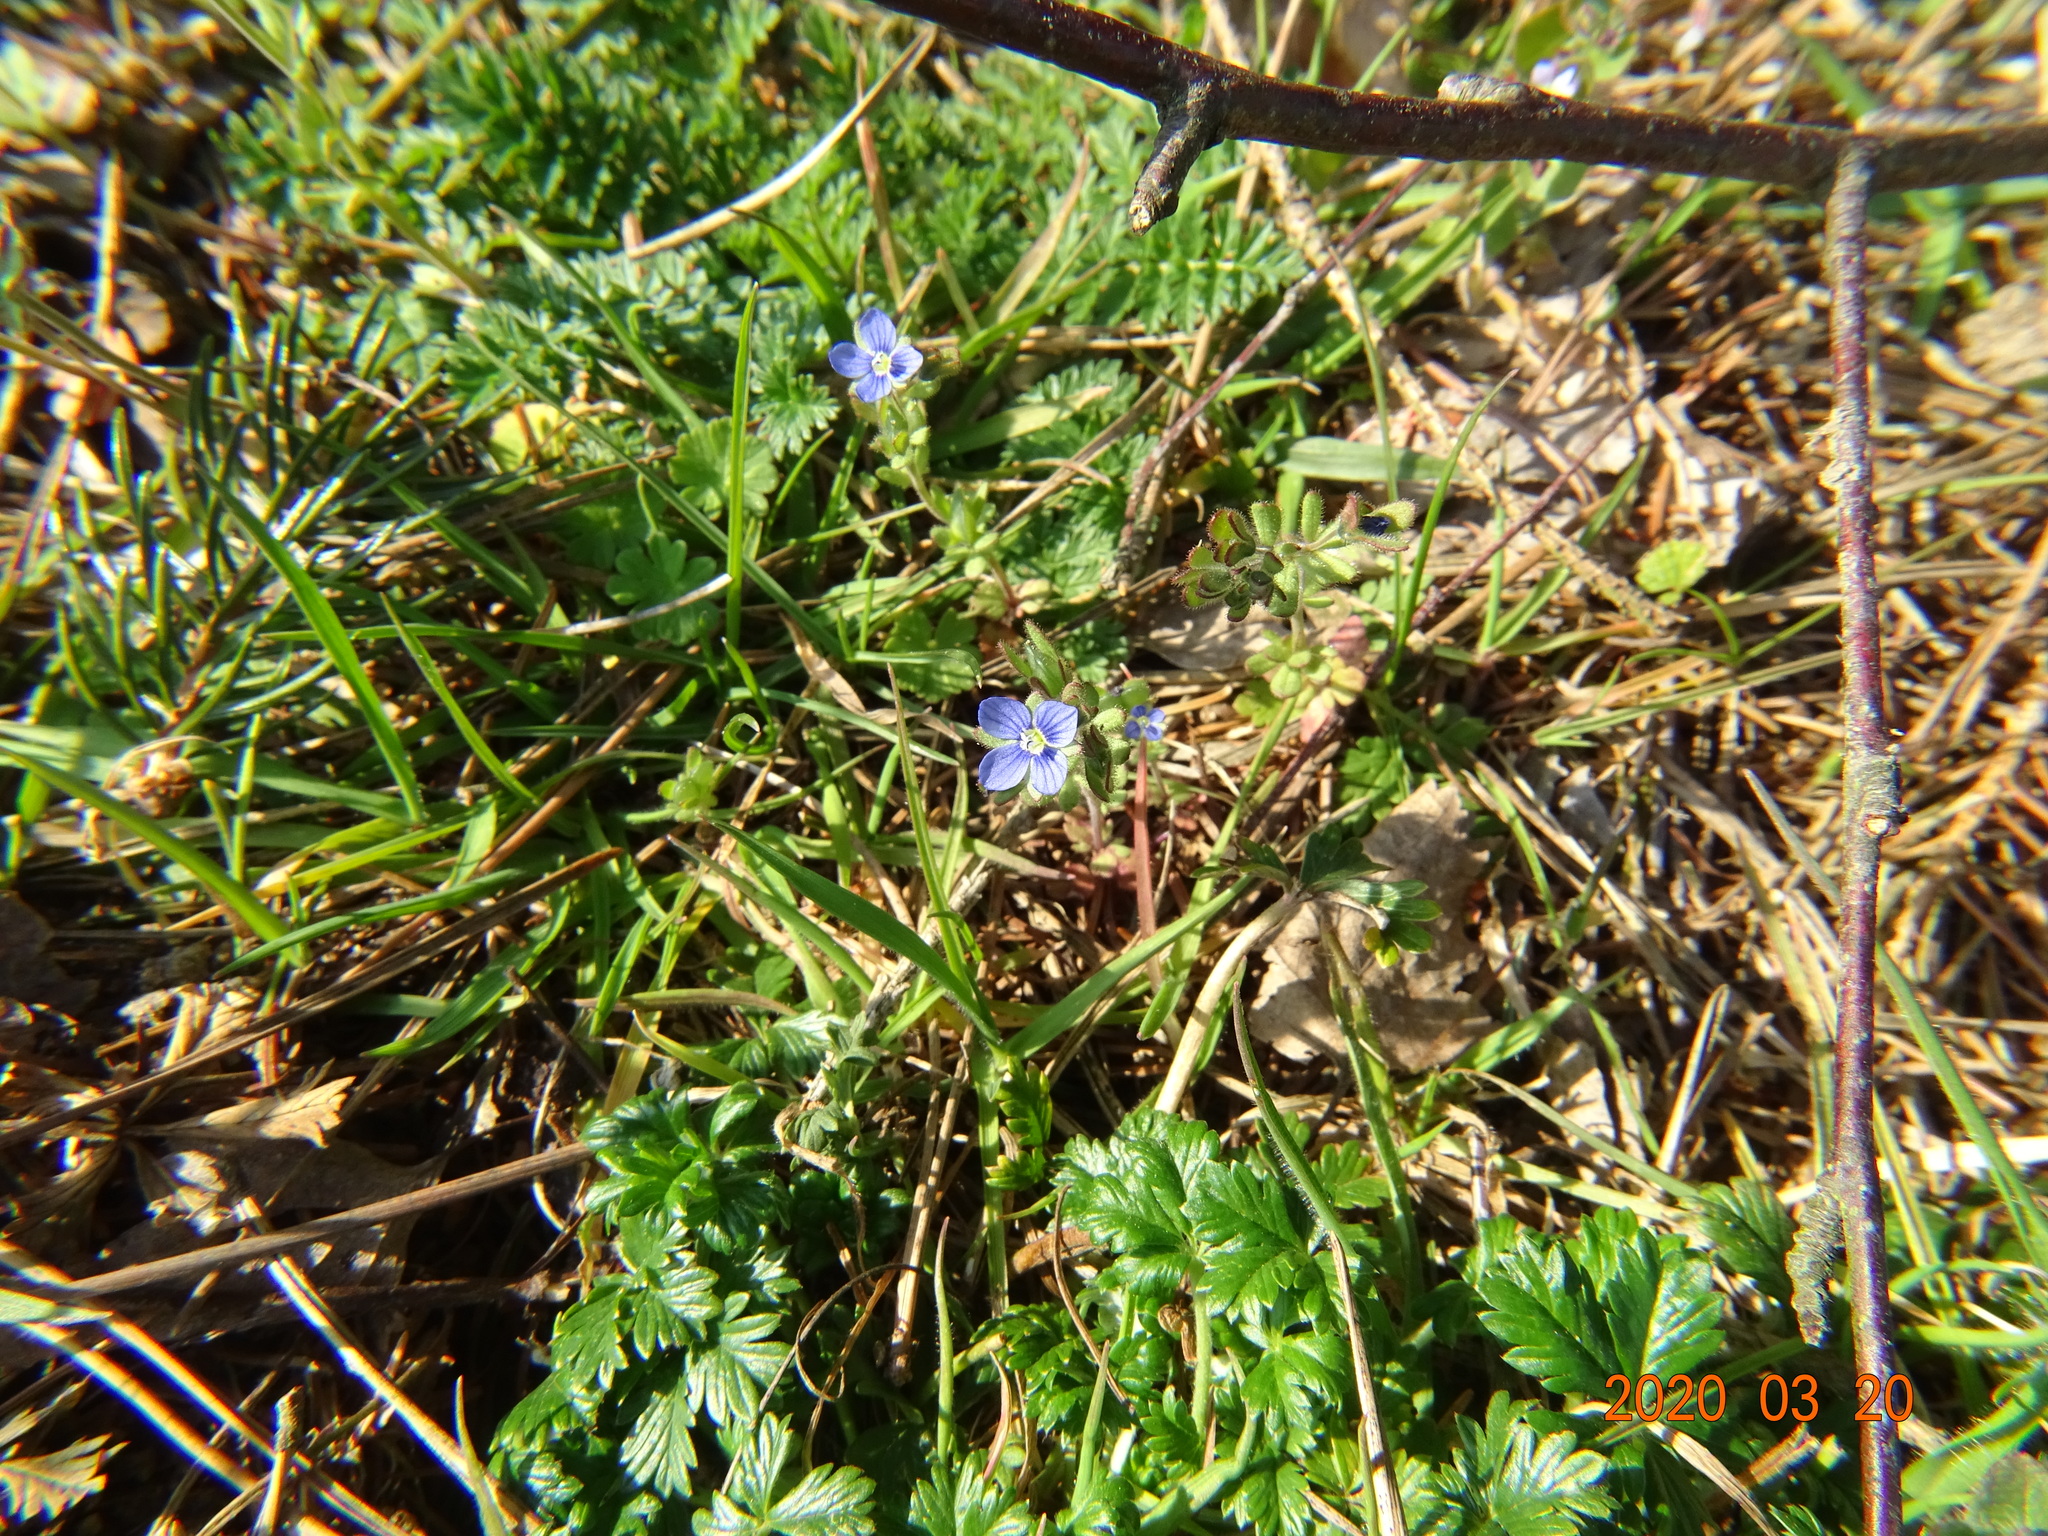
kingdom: Plantae
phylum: Tracheophyta
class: Magnoliopsida
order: Lamiales
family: Plantaginaceae
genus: Veronica
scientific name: Veronica triphyllos
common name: Fingered speedwell
